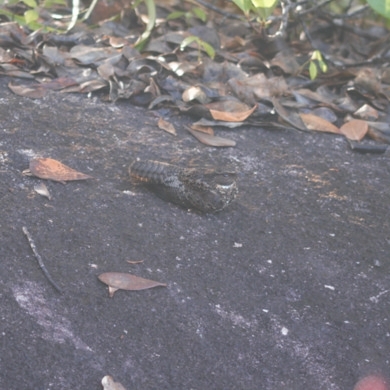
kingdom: Animalia
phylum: Chordata
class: Aves
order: Caprimulgiformes
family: Caprimulgidae
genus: Nyctipolus
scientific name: Nyctipolus nigrescens
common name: Blackish nightjar
